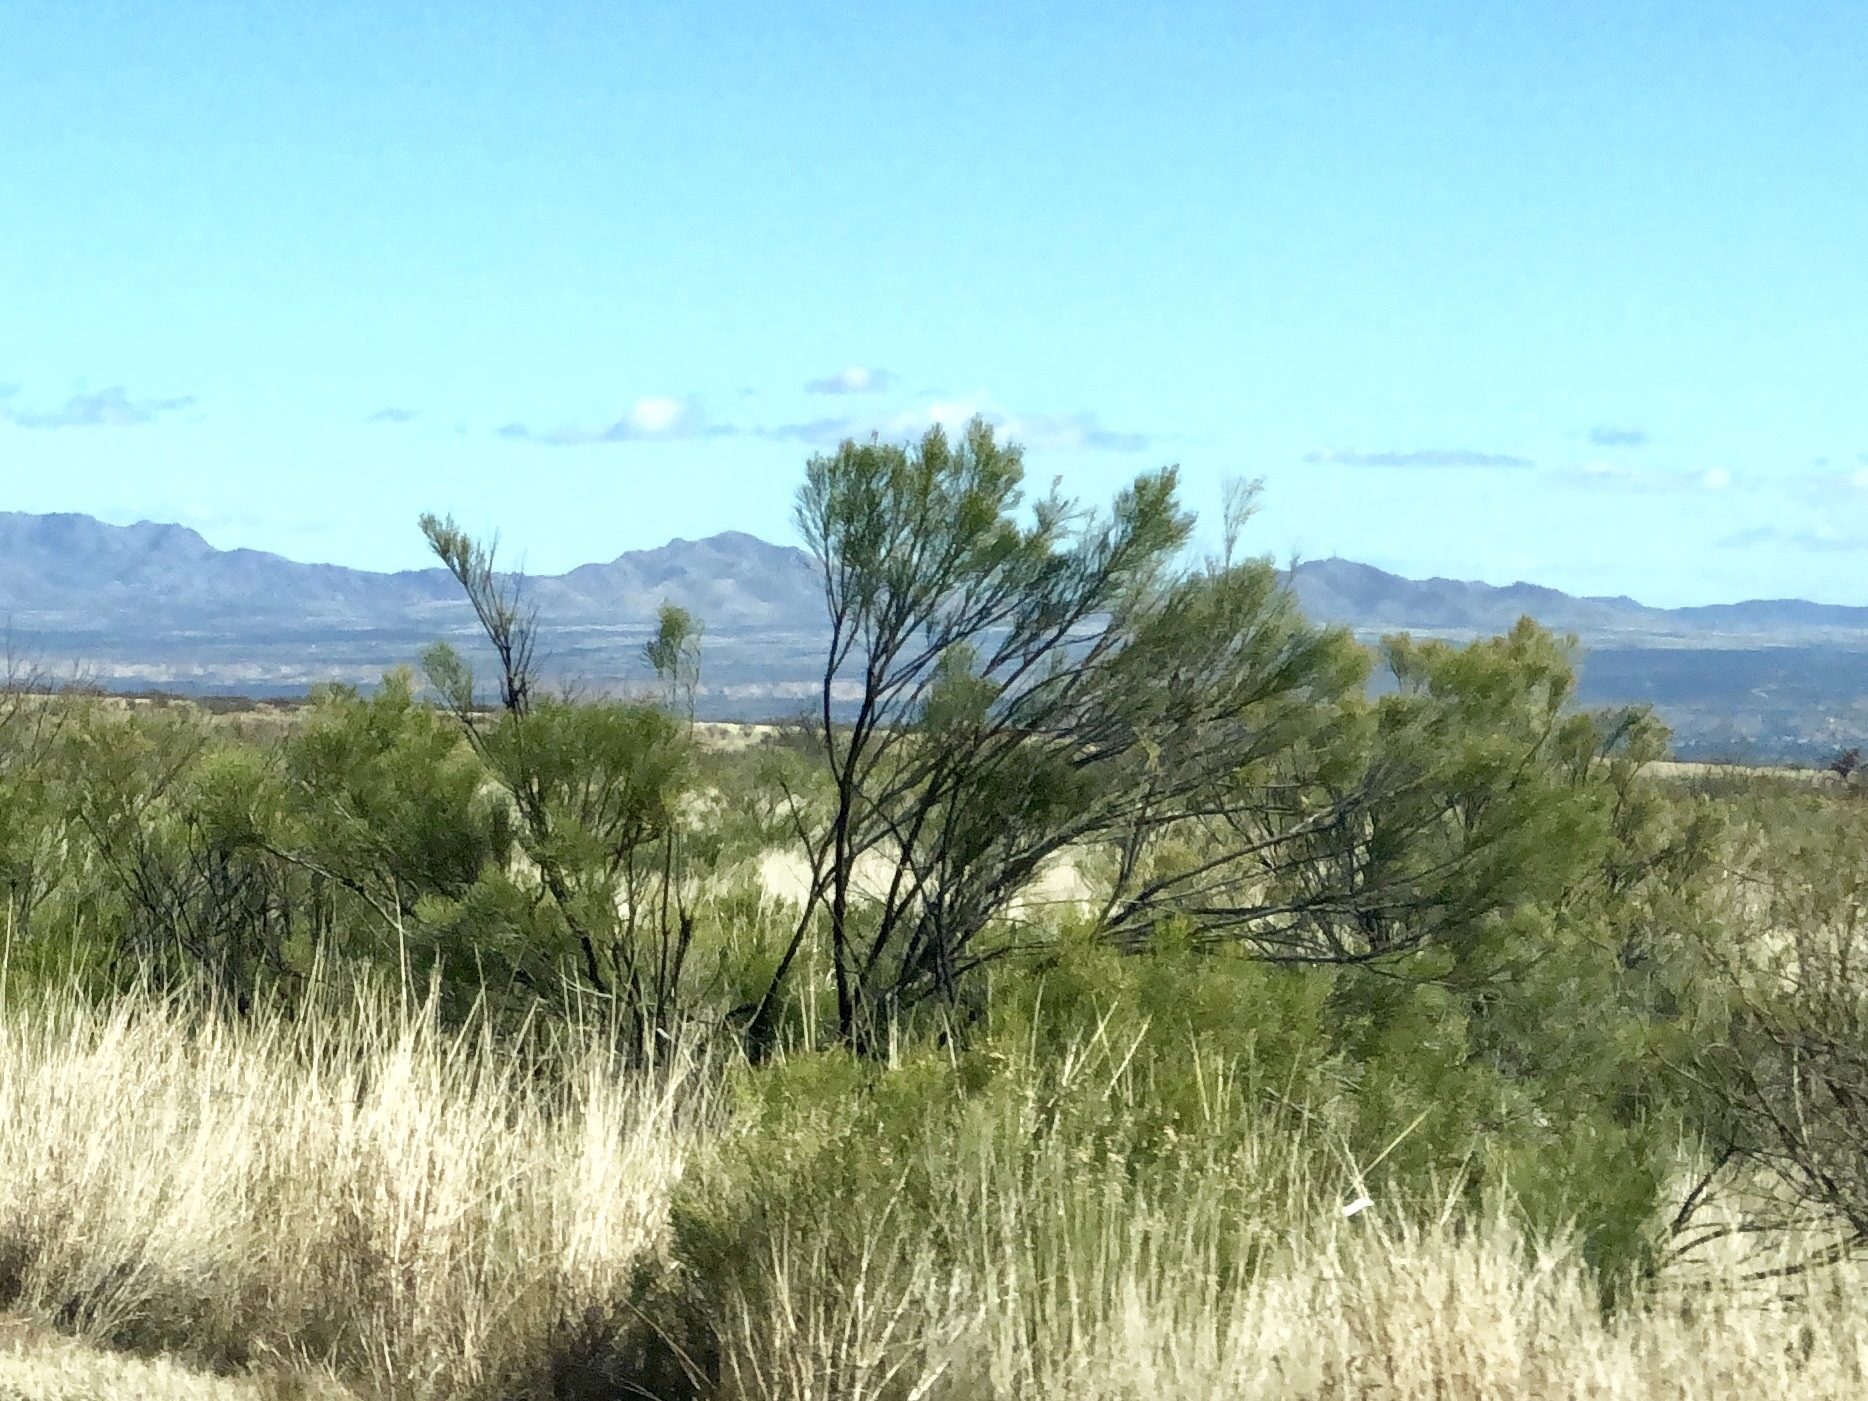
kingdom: Plantae
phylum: Tracheophyta
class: Magnoliopsida
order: Asterales
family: Asteraceae
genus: Baccharis
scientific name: Baccharis sarothroides
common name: Desert-broom
